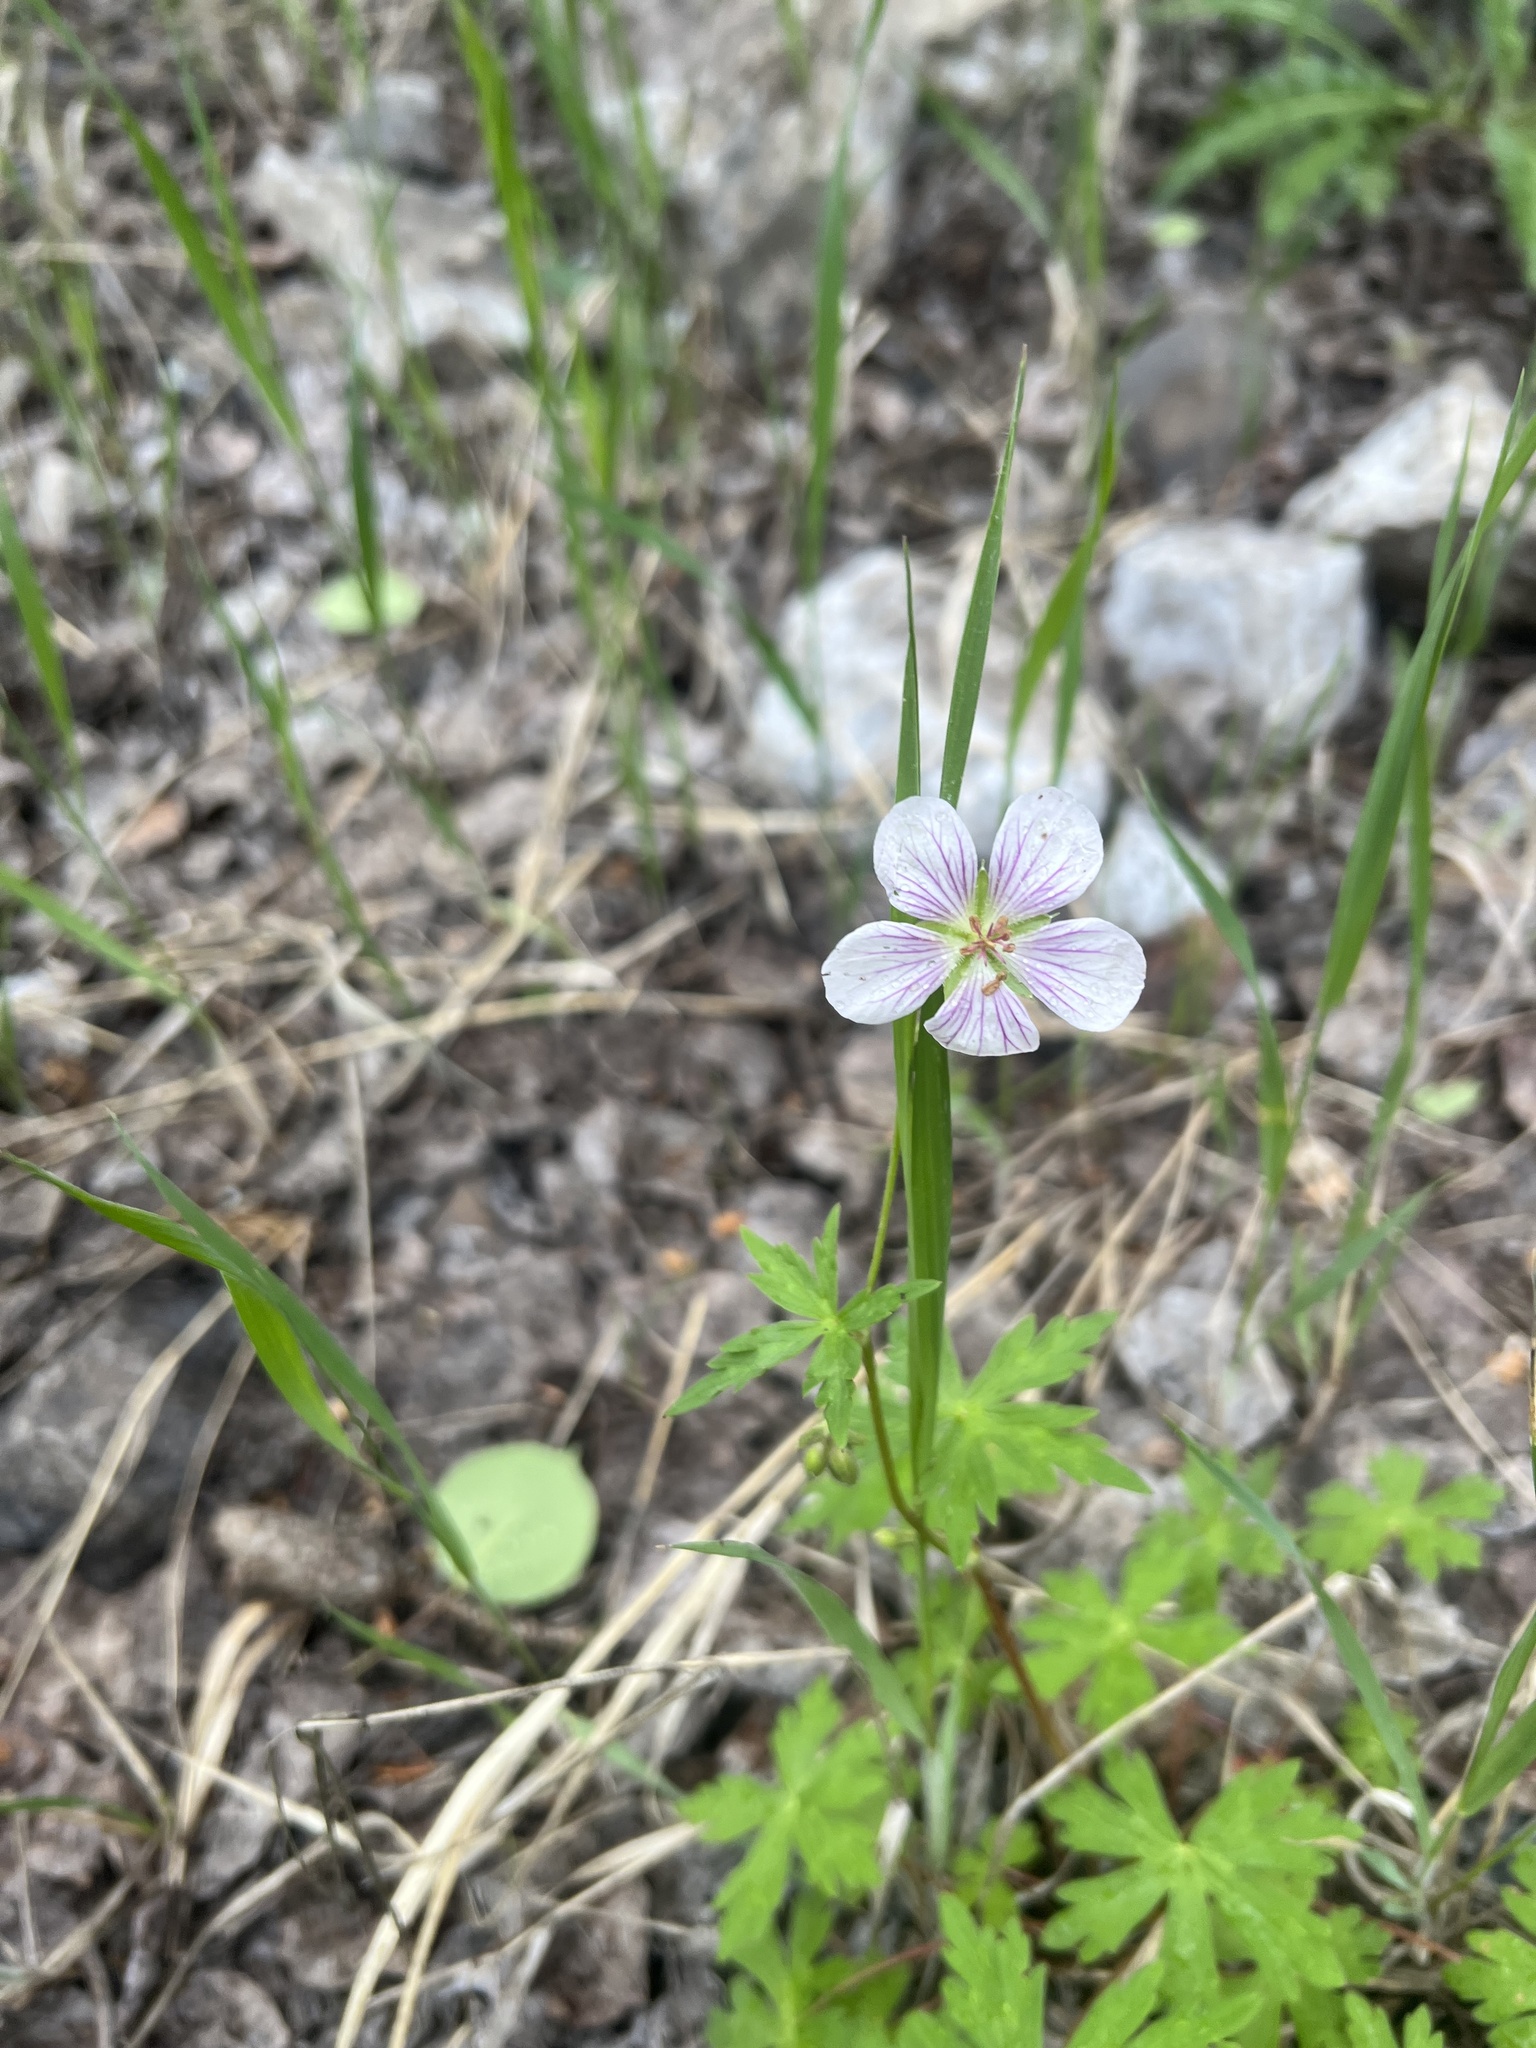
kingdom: Plantae
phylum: Tracheophyta
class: Magnoliopsida
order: Geraniales
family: Geraniaceae
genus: Geranium
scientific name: Geranium richardsonii
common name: Richardson's crane's-bill
